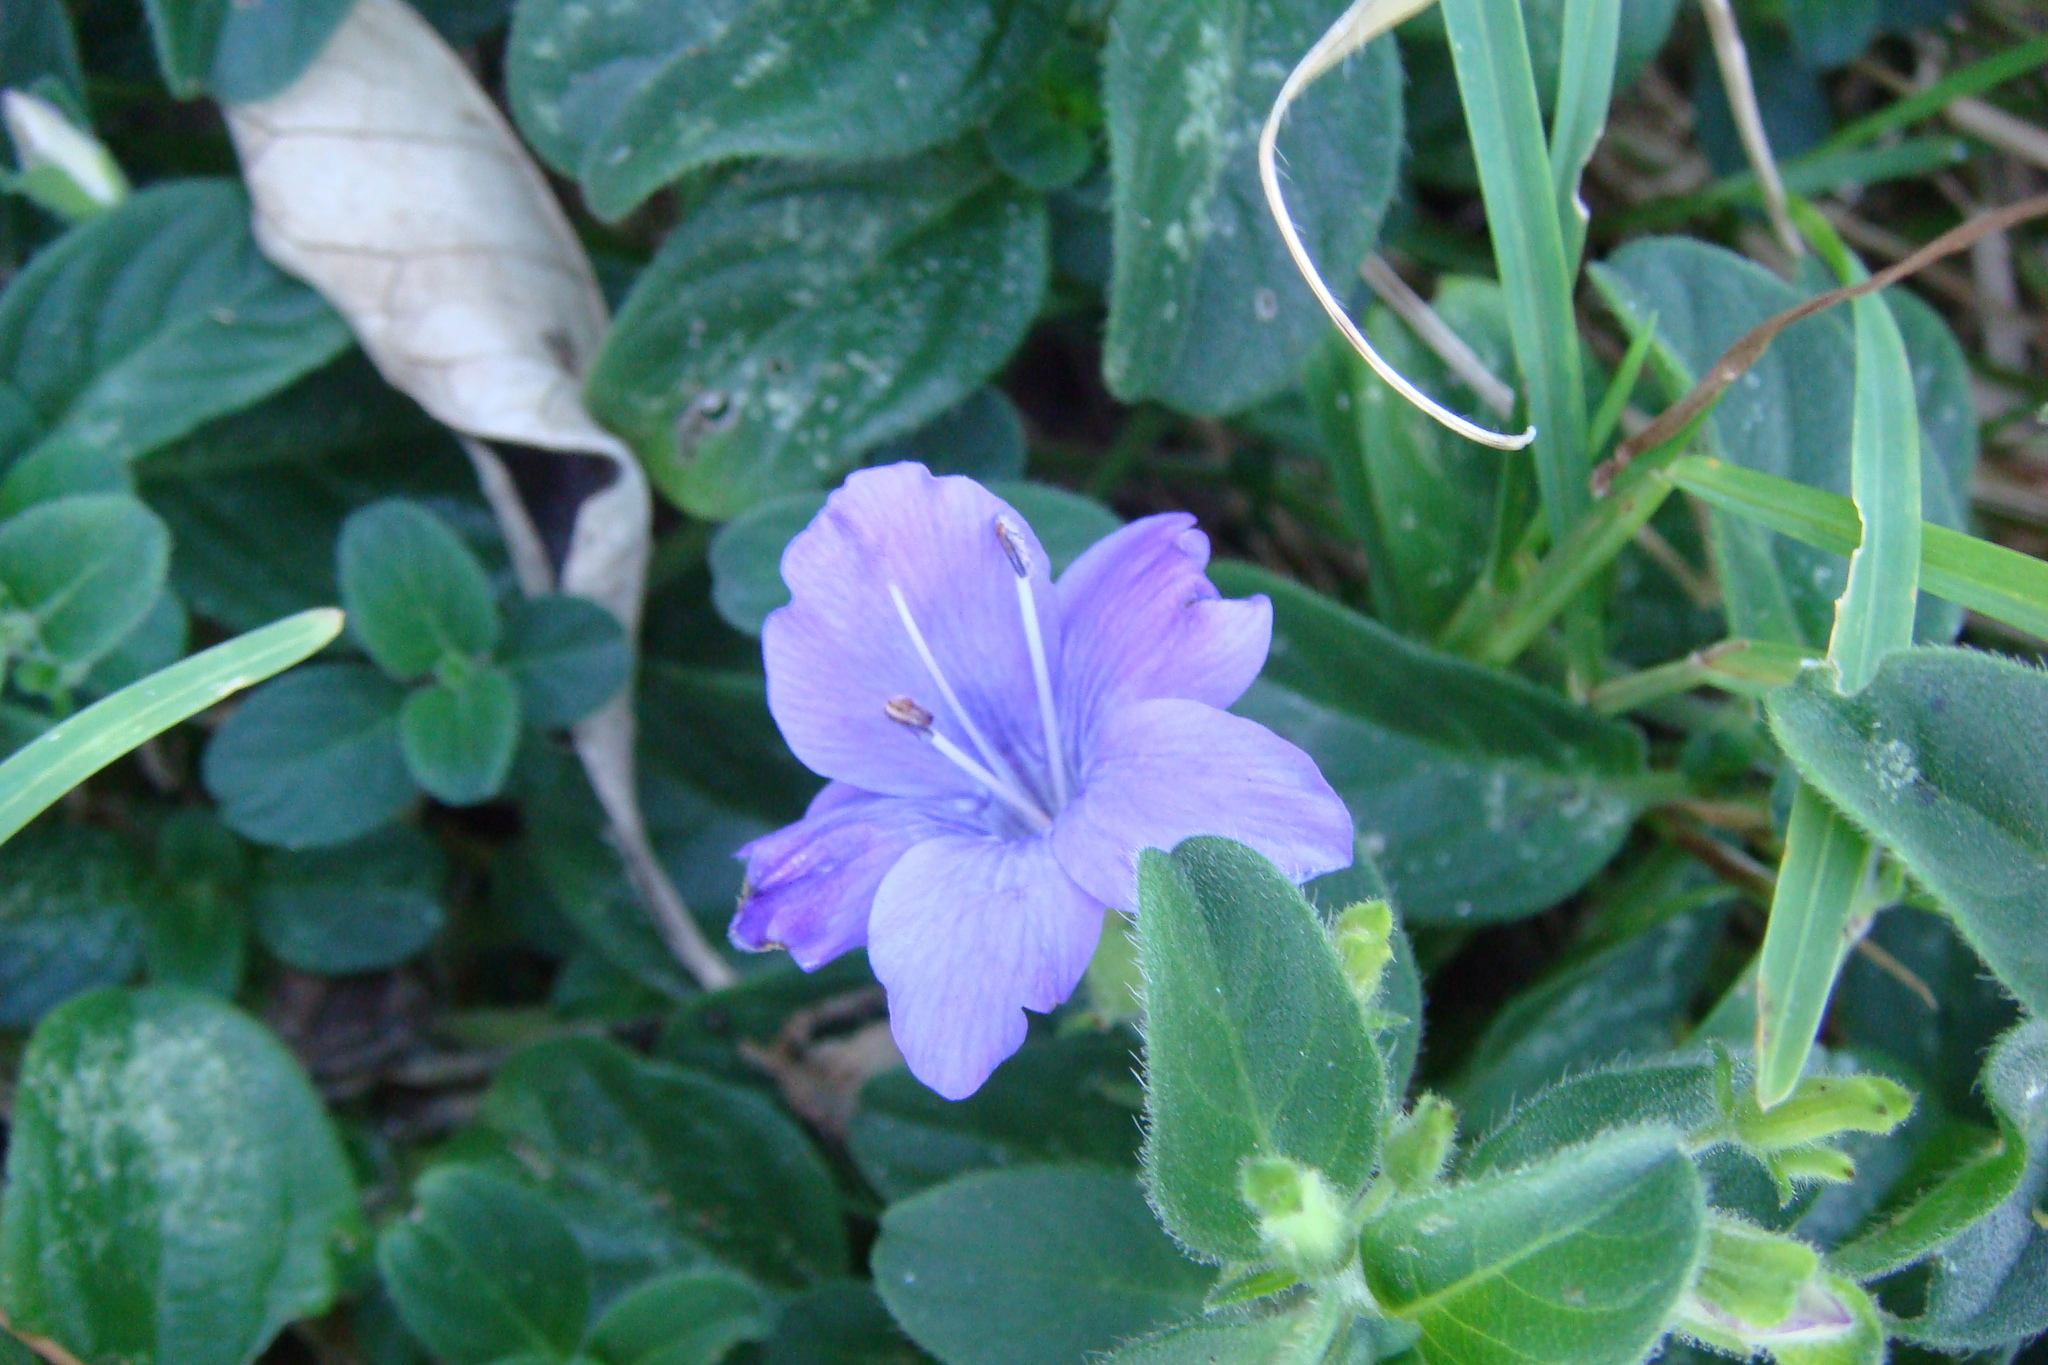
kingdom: Plantae
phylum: Tracheophyta
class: Magnoliopsida
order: Lamiales
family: Acanthaceae
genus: Barleria
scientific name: Barleria obtusa
